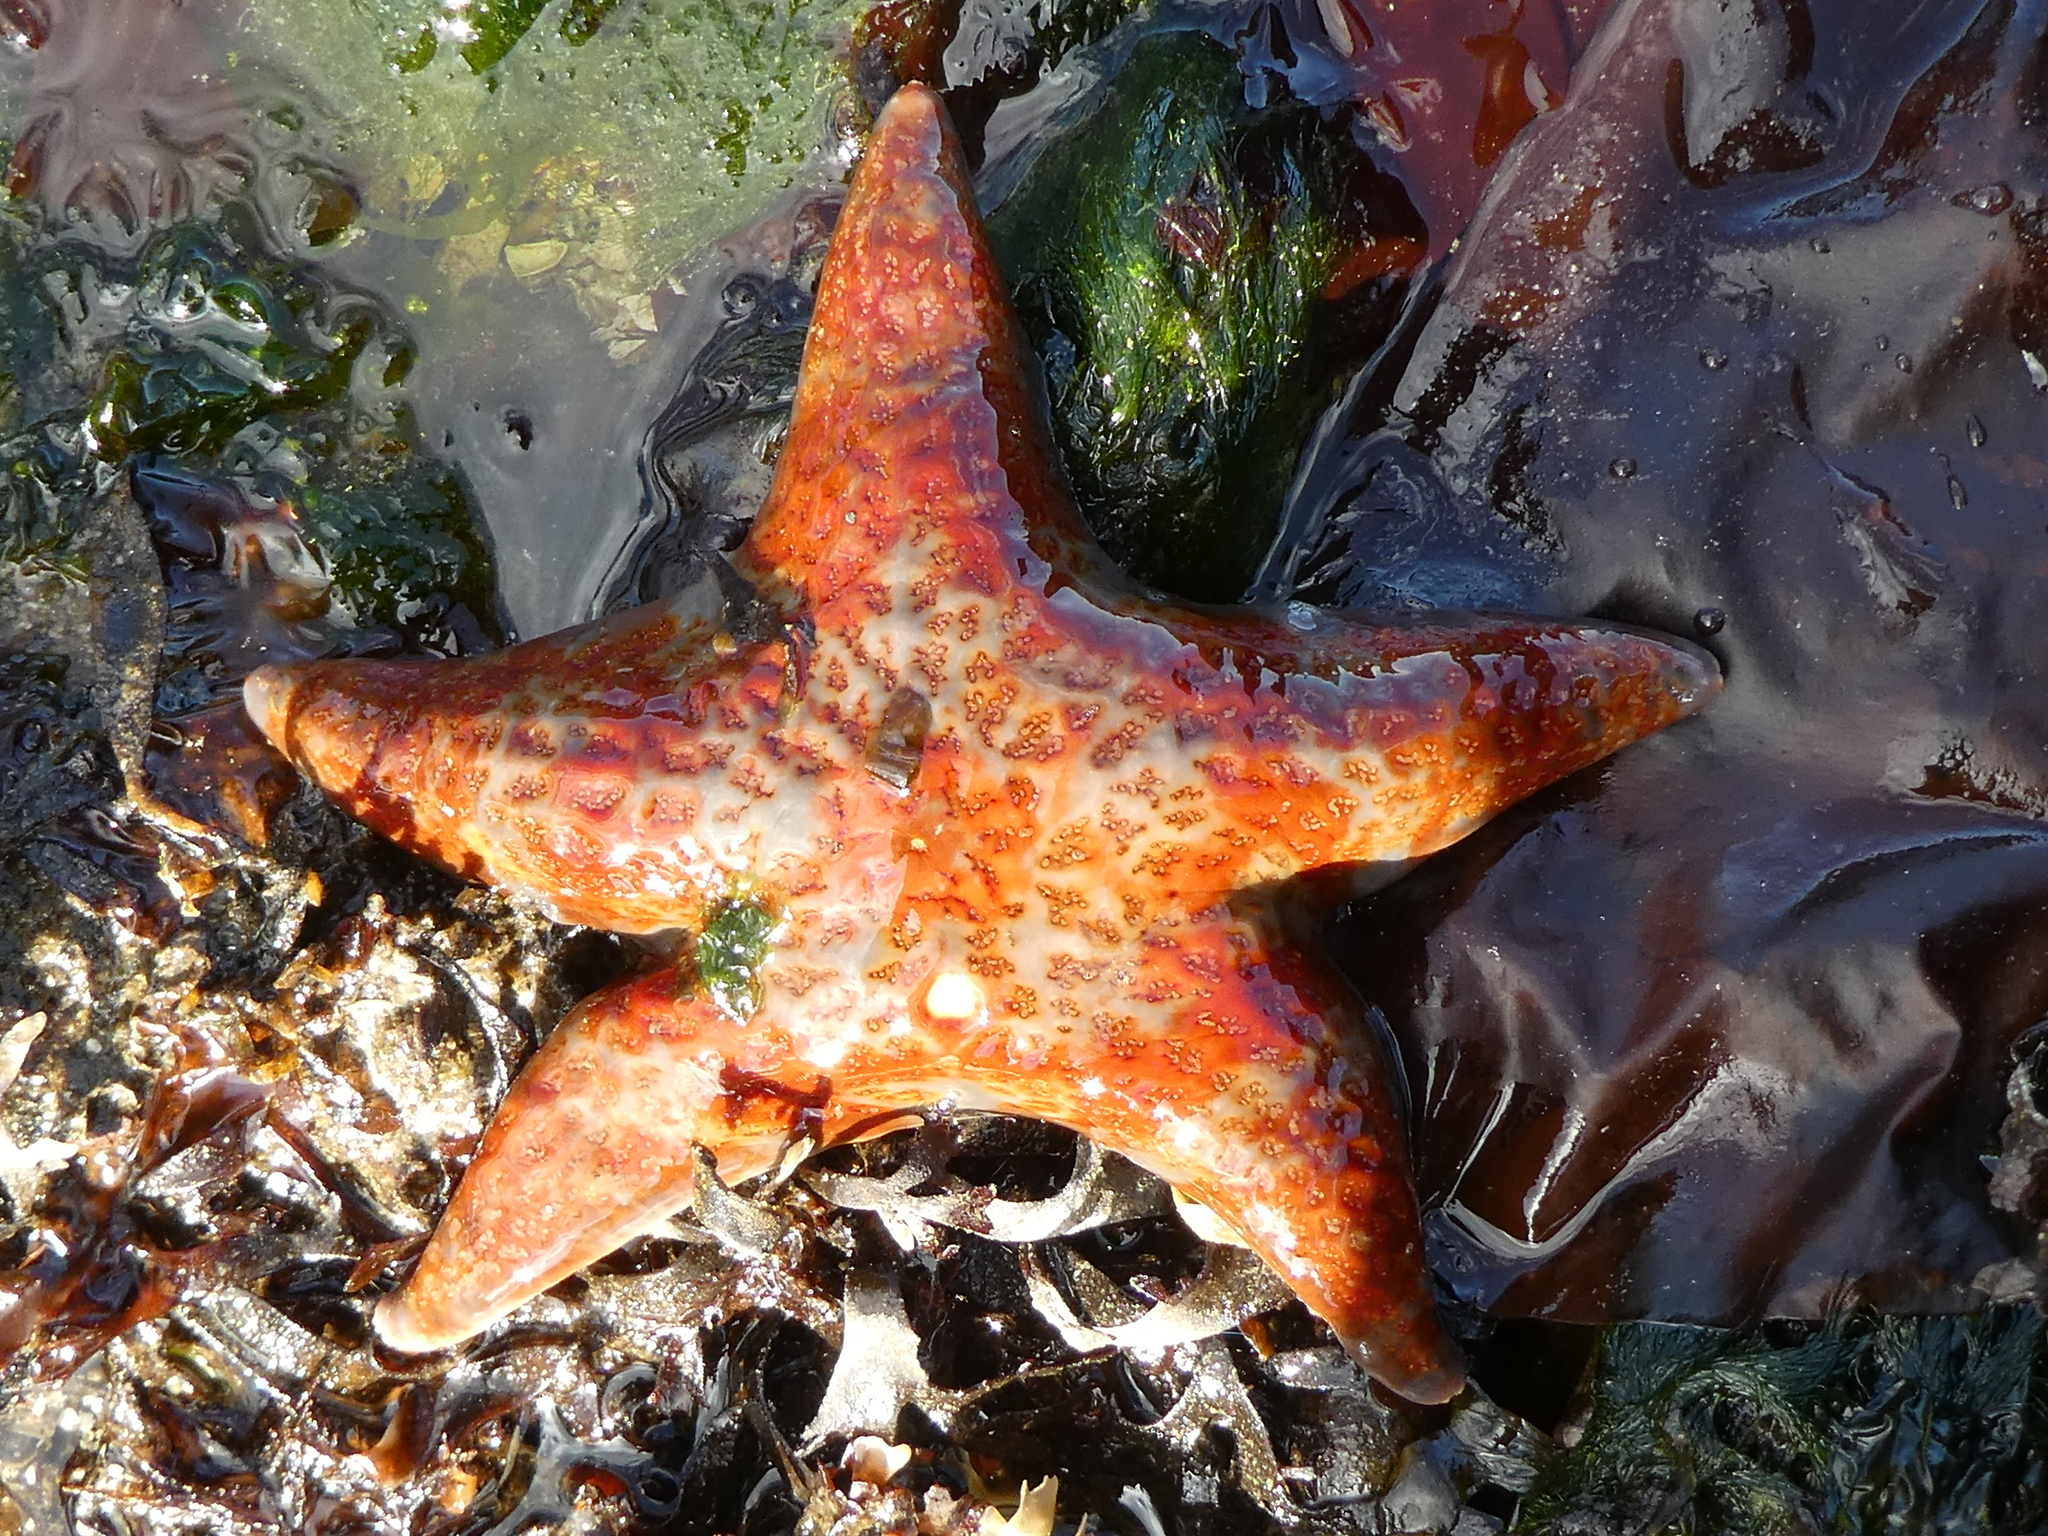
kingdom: Animalia
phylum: Echinodermata
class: Asteroidea
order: Valvatida
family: Asteropseidae
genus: Dermasterias
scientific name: Dermasterias imbricata
